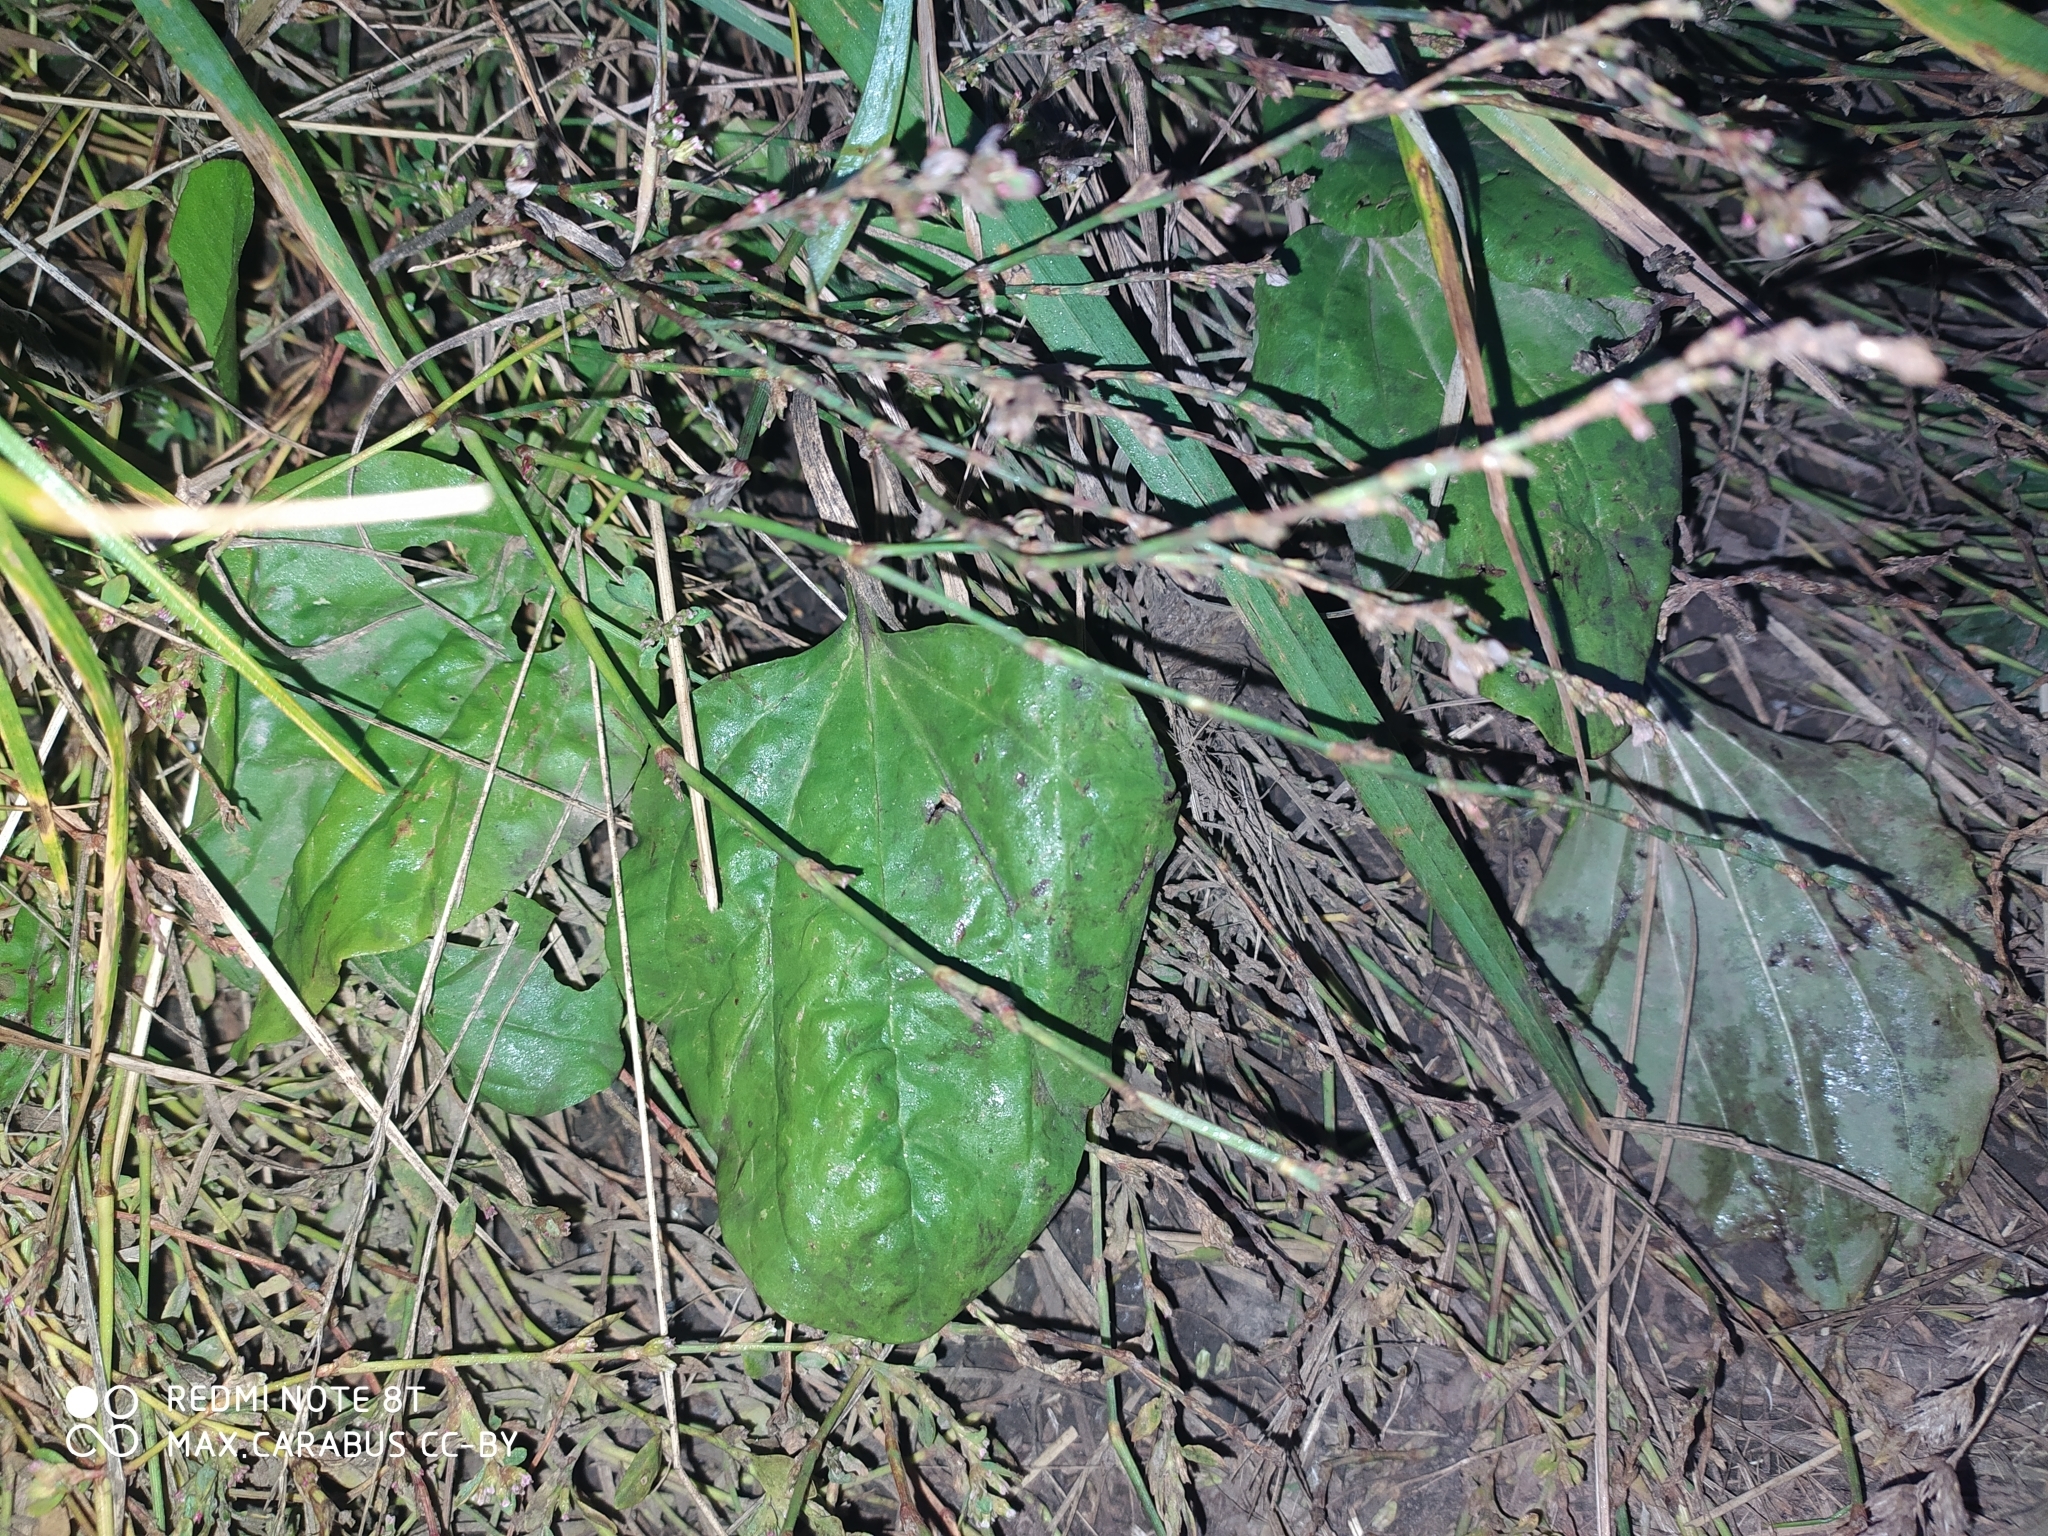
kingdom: Plantae
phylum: Tracheophyta
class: Magnoliopsida
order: Lamiales
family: Plantaginaceae
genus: Plantago
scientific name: Plantago major
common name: Common plantain
